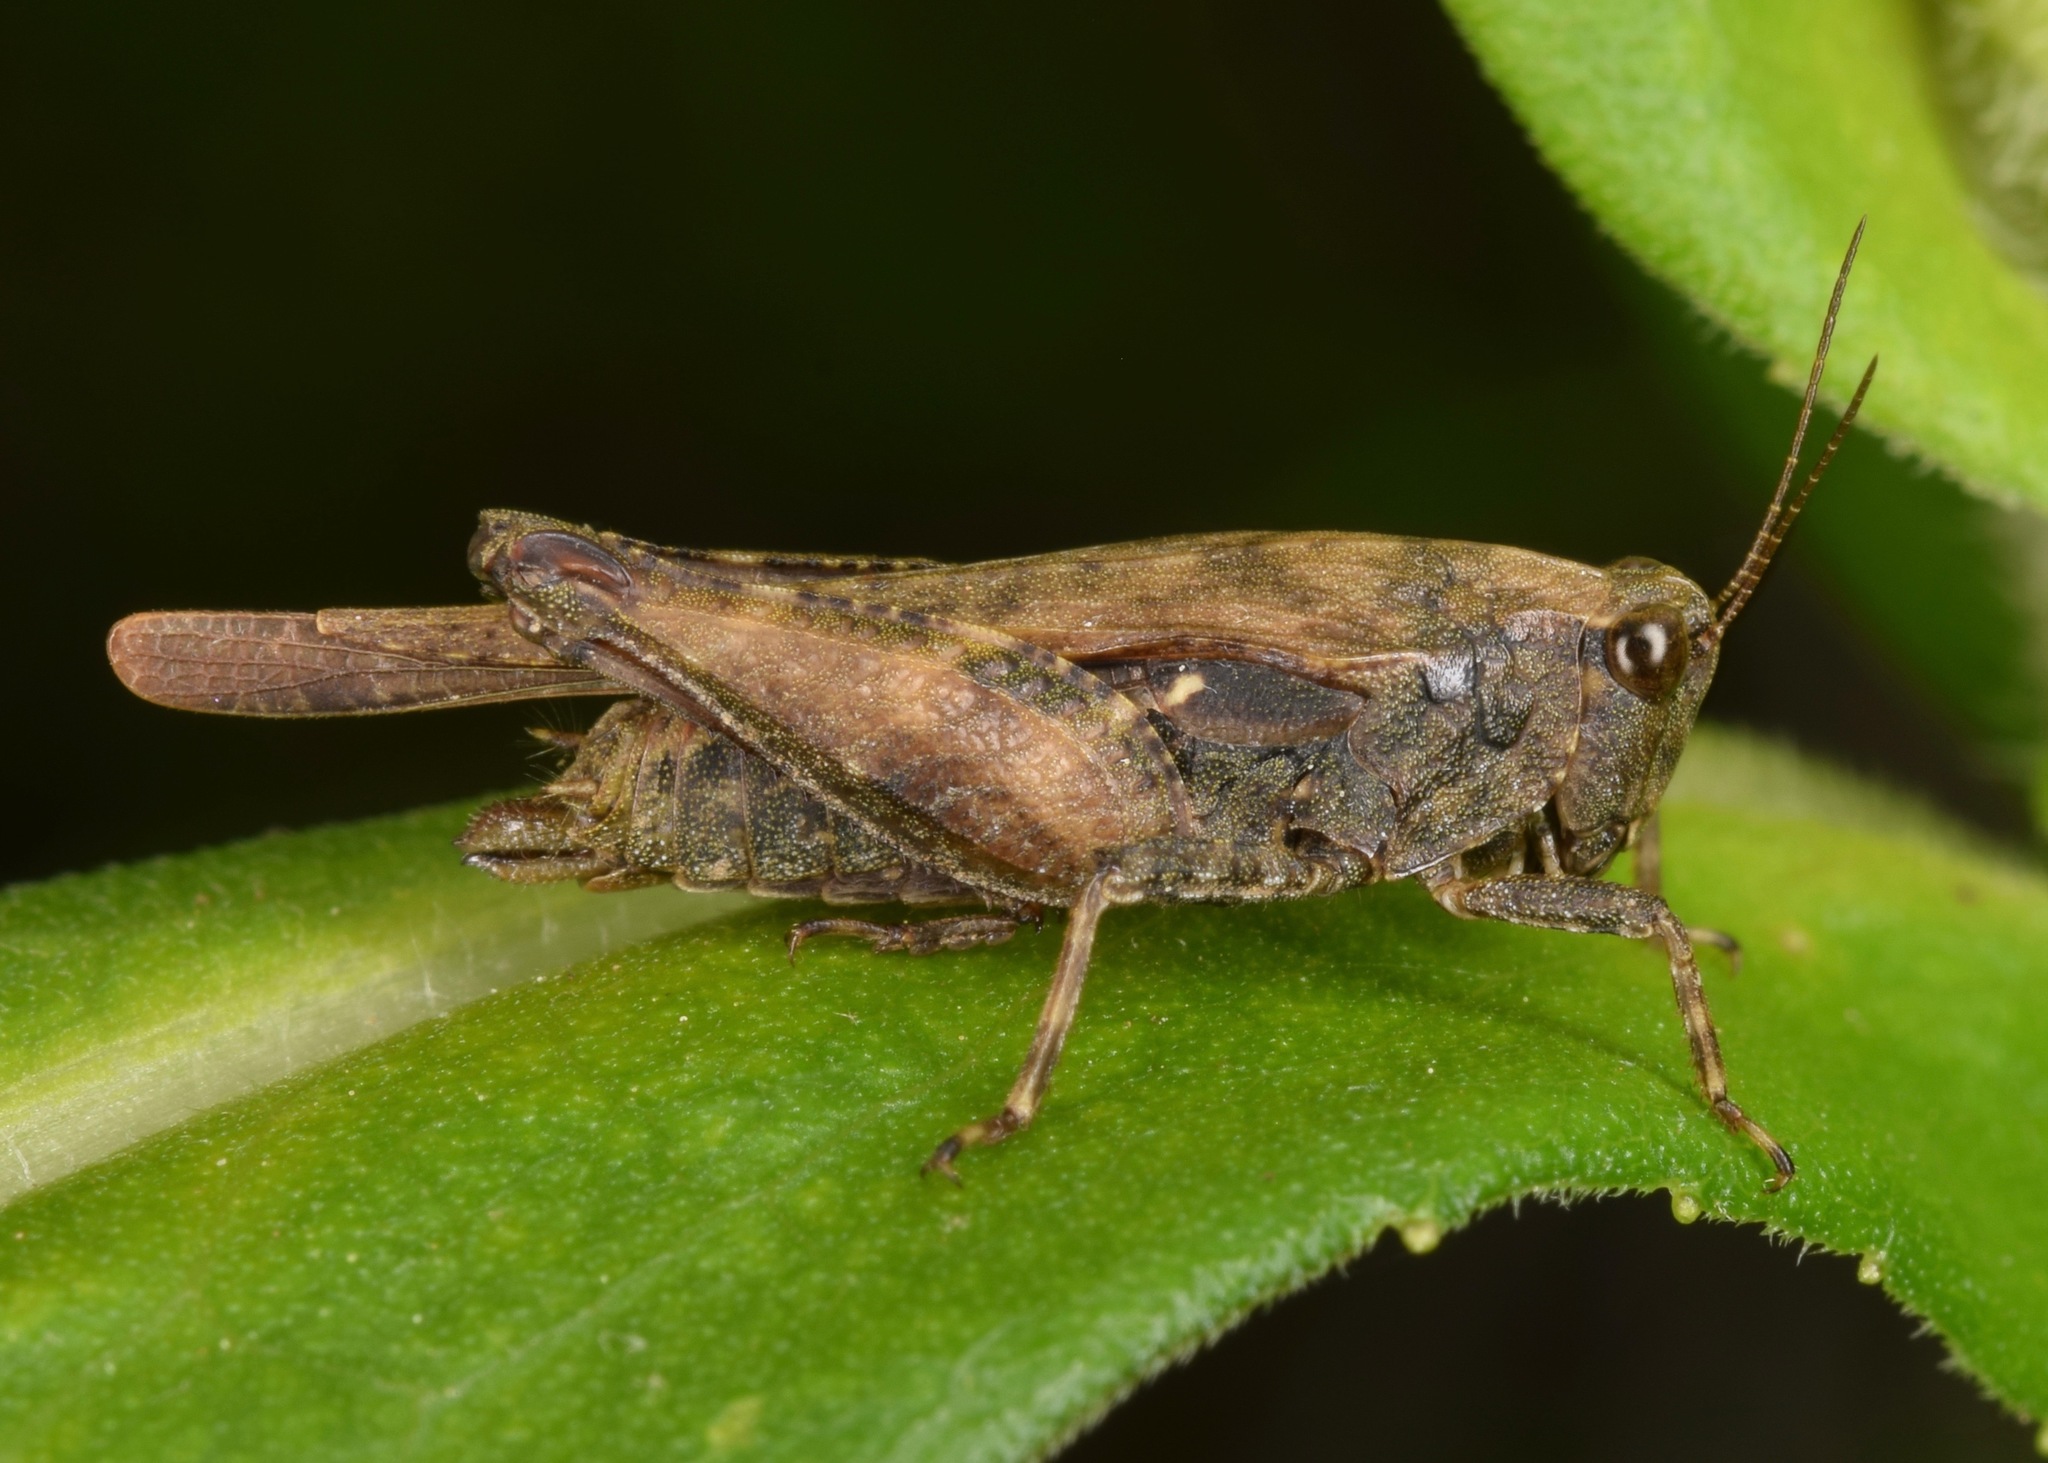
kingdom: Animalia
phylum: Arthropoda
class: Insecta
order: Orthoptera
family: Tetrigidae
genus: Tettigidea
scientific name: Tettigidea
